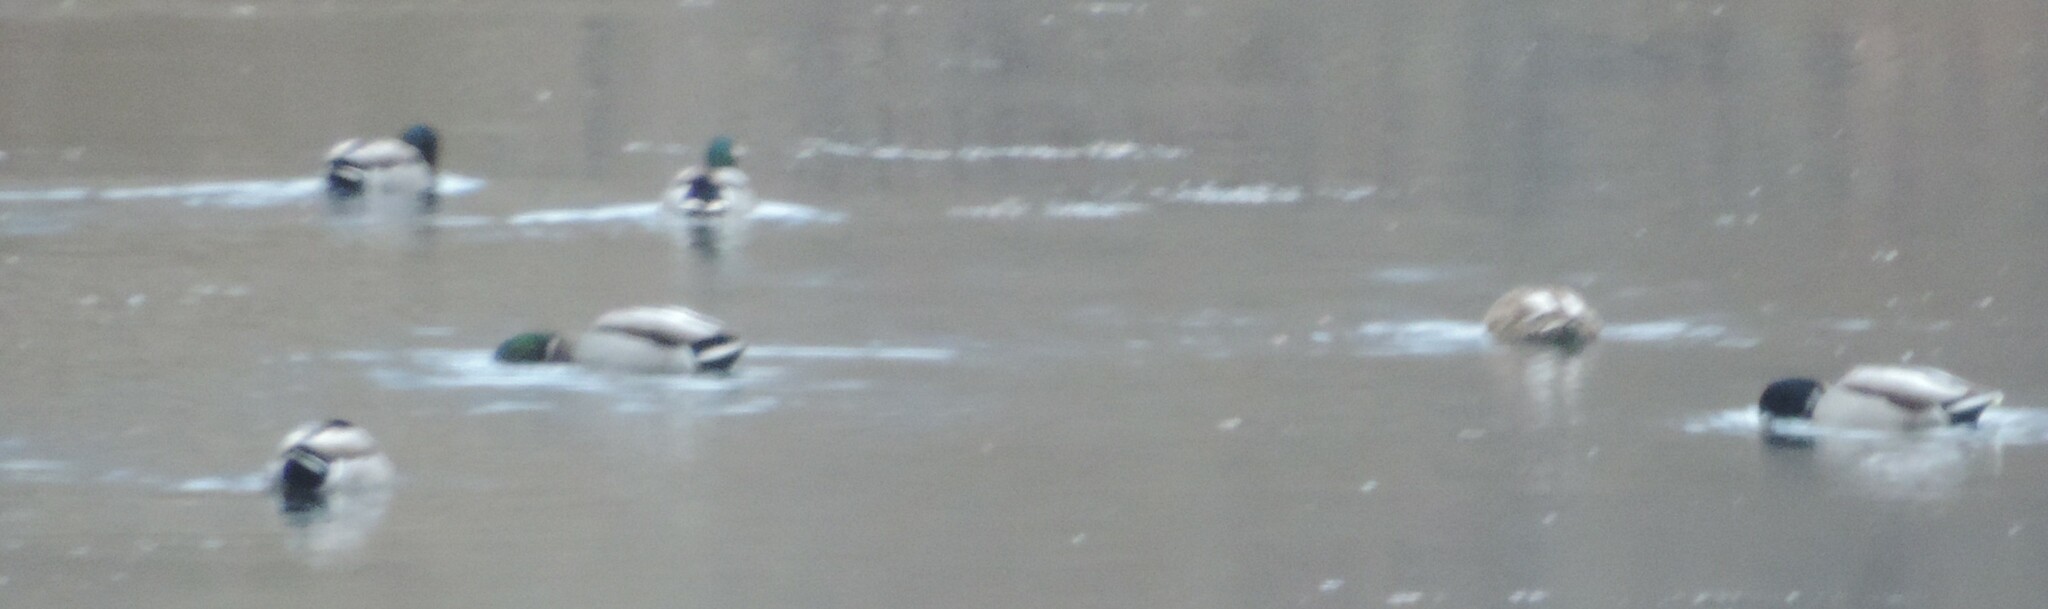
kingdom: Animalia
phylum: Chordata
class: Aves
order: Anseriformes
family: Anatidae
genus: Anas
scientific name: Anas platyrhynchos
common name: Mallard
